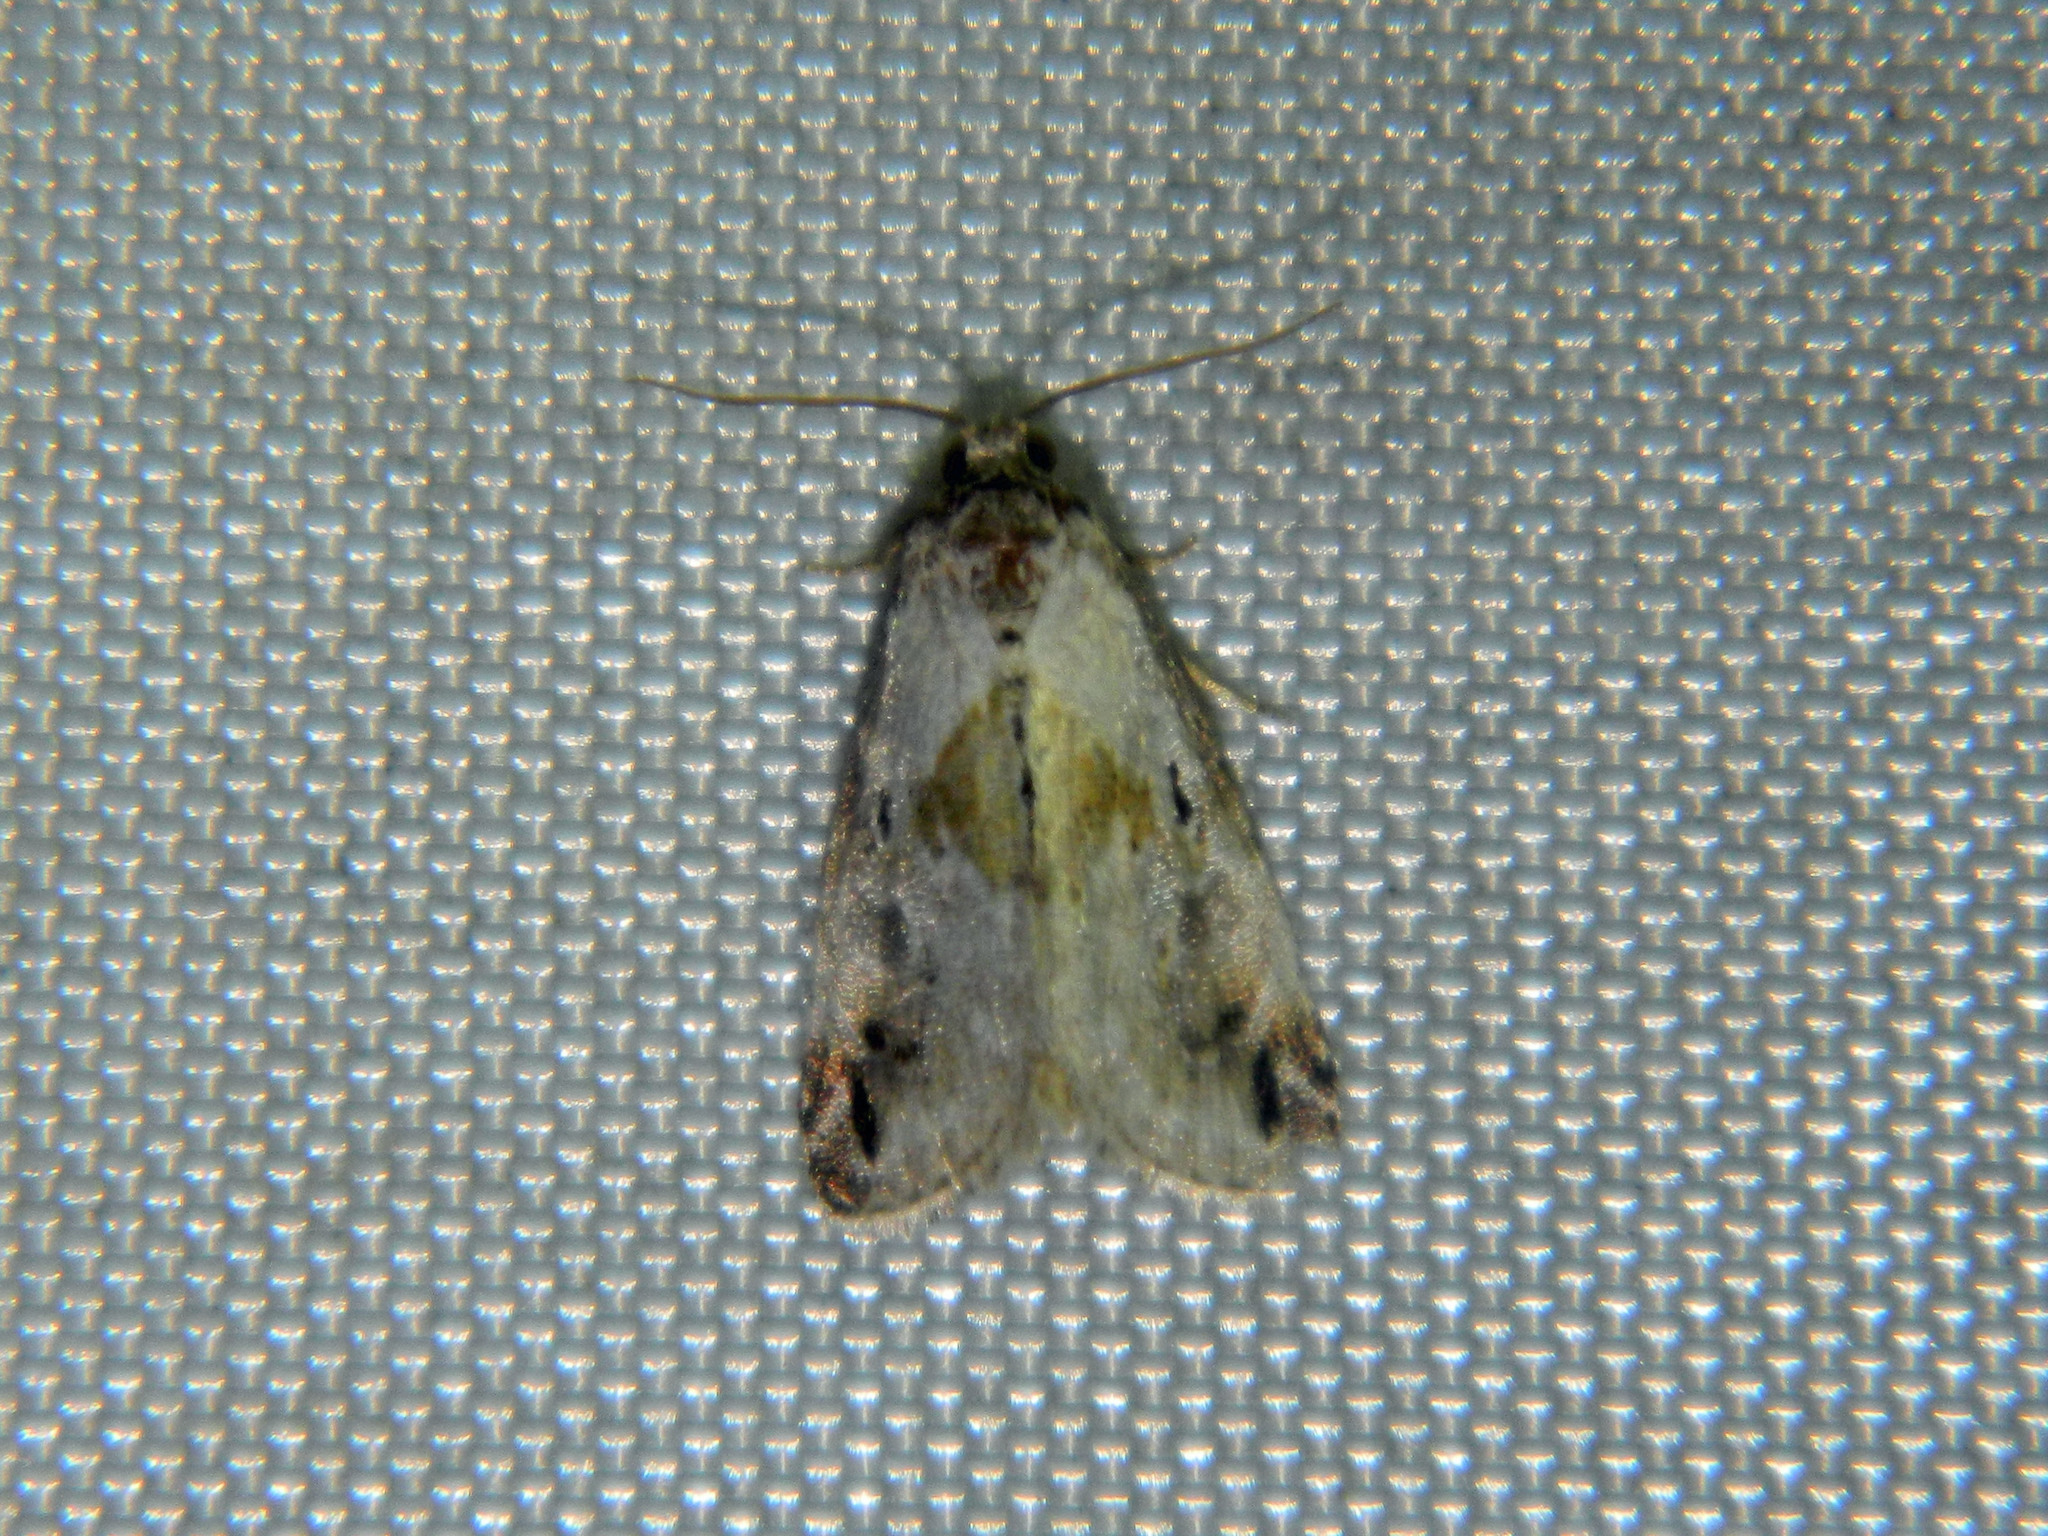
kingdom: Animalia
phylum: Arthropoda
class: Insecta
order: Lepidoptera
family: Noctuidae
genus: Maliattha
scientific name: Maliattha synochitis
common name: Black-dotted glyph
